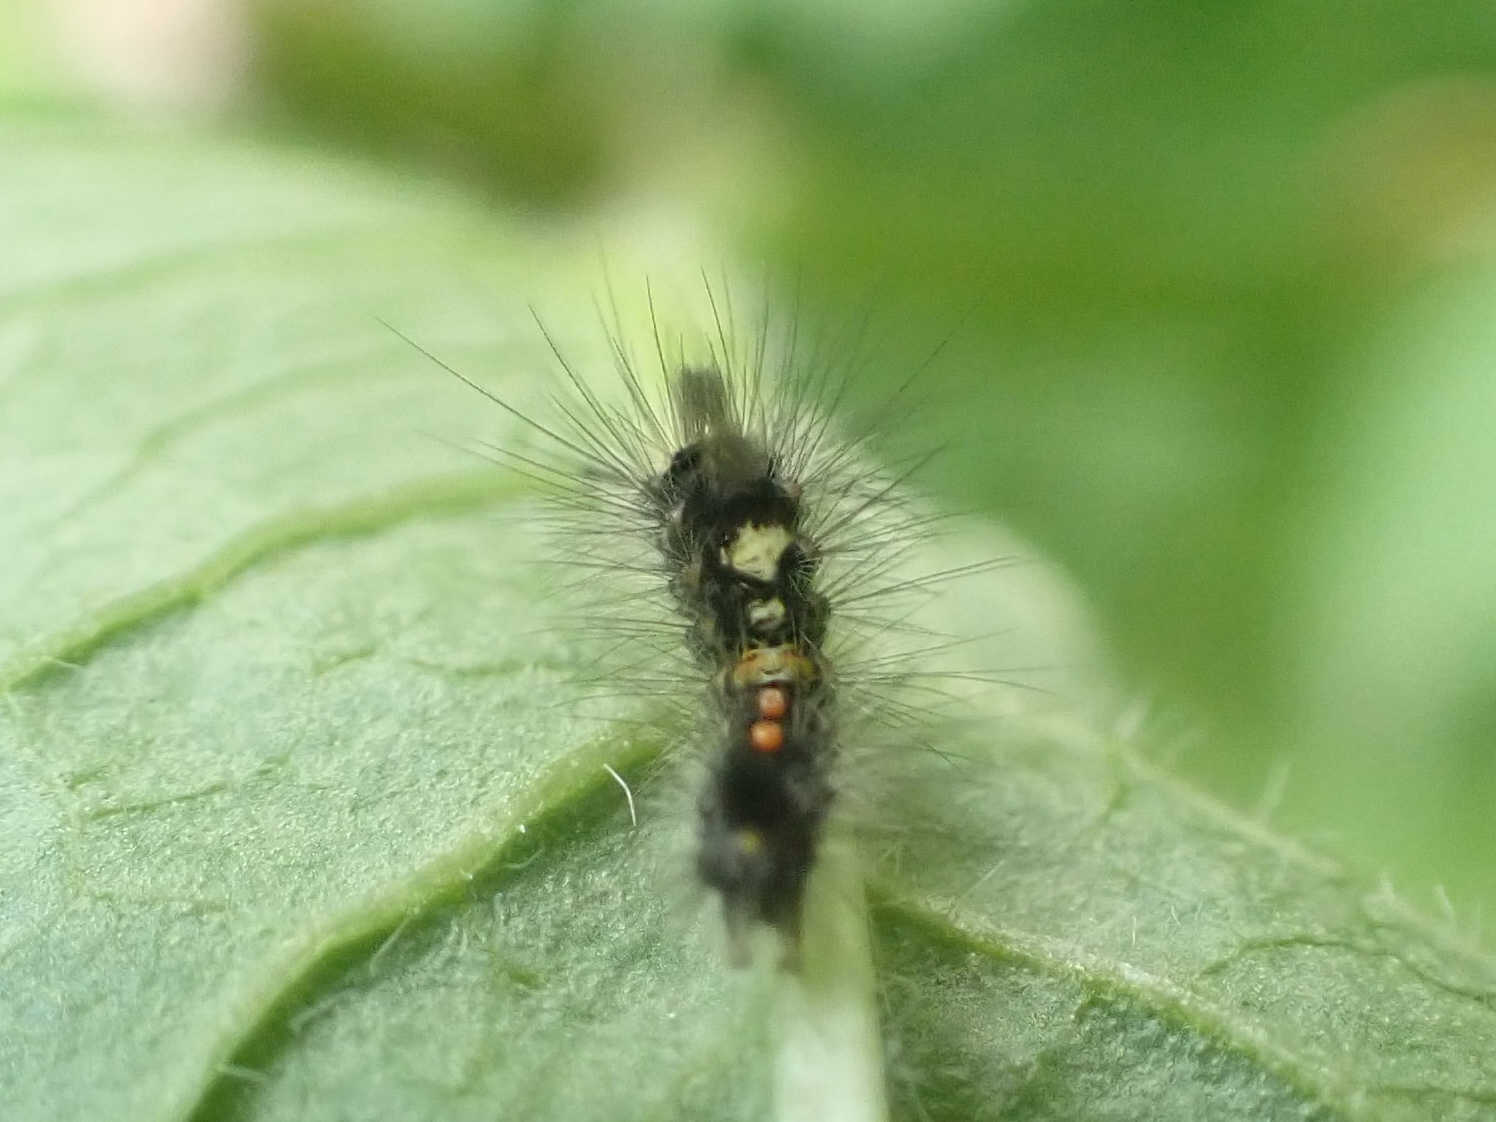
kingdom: Animalia
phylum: Arthropoda
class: Insecta
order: Lepidoptera
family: Erebidae
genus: Orgyia
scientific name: Orgyia antiqua
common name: Vapourer
